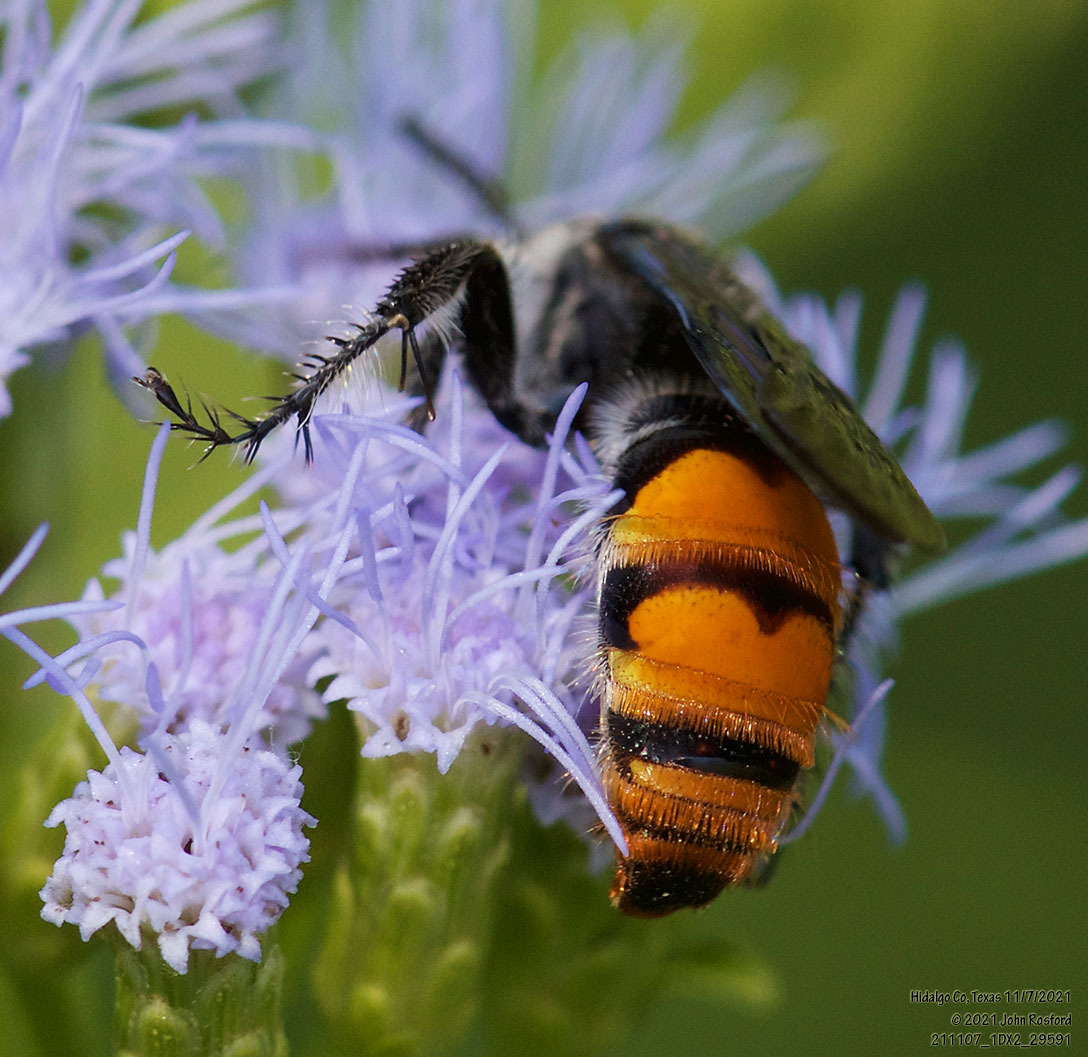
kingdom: Animalia
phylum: Arthropoda
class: Insecta
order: Hymenoptera
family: Scoliidae
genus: Dielis
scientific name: Dielis tolteca
